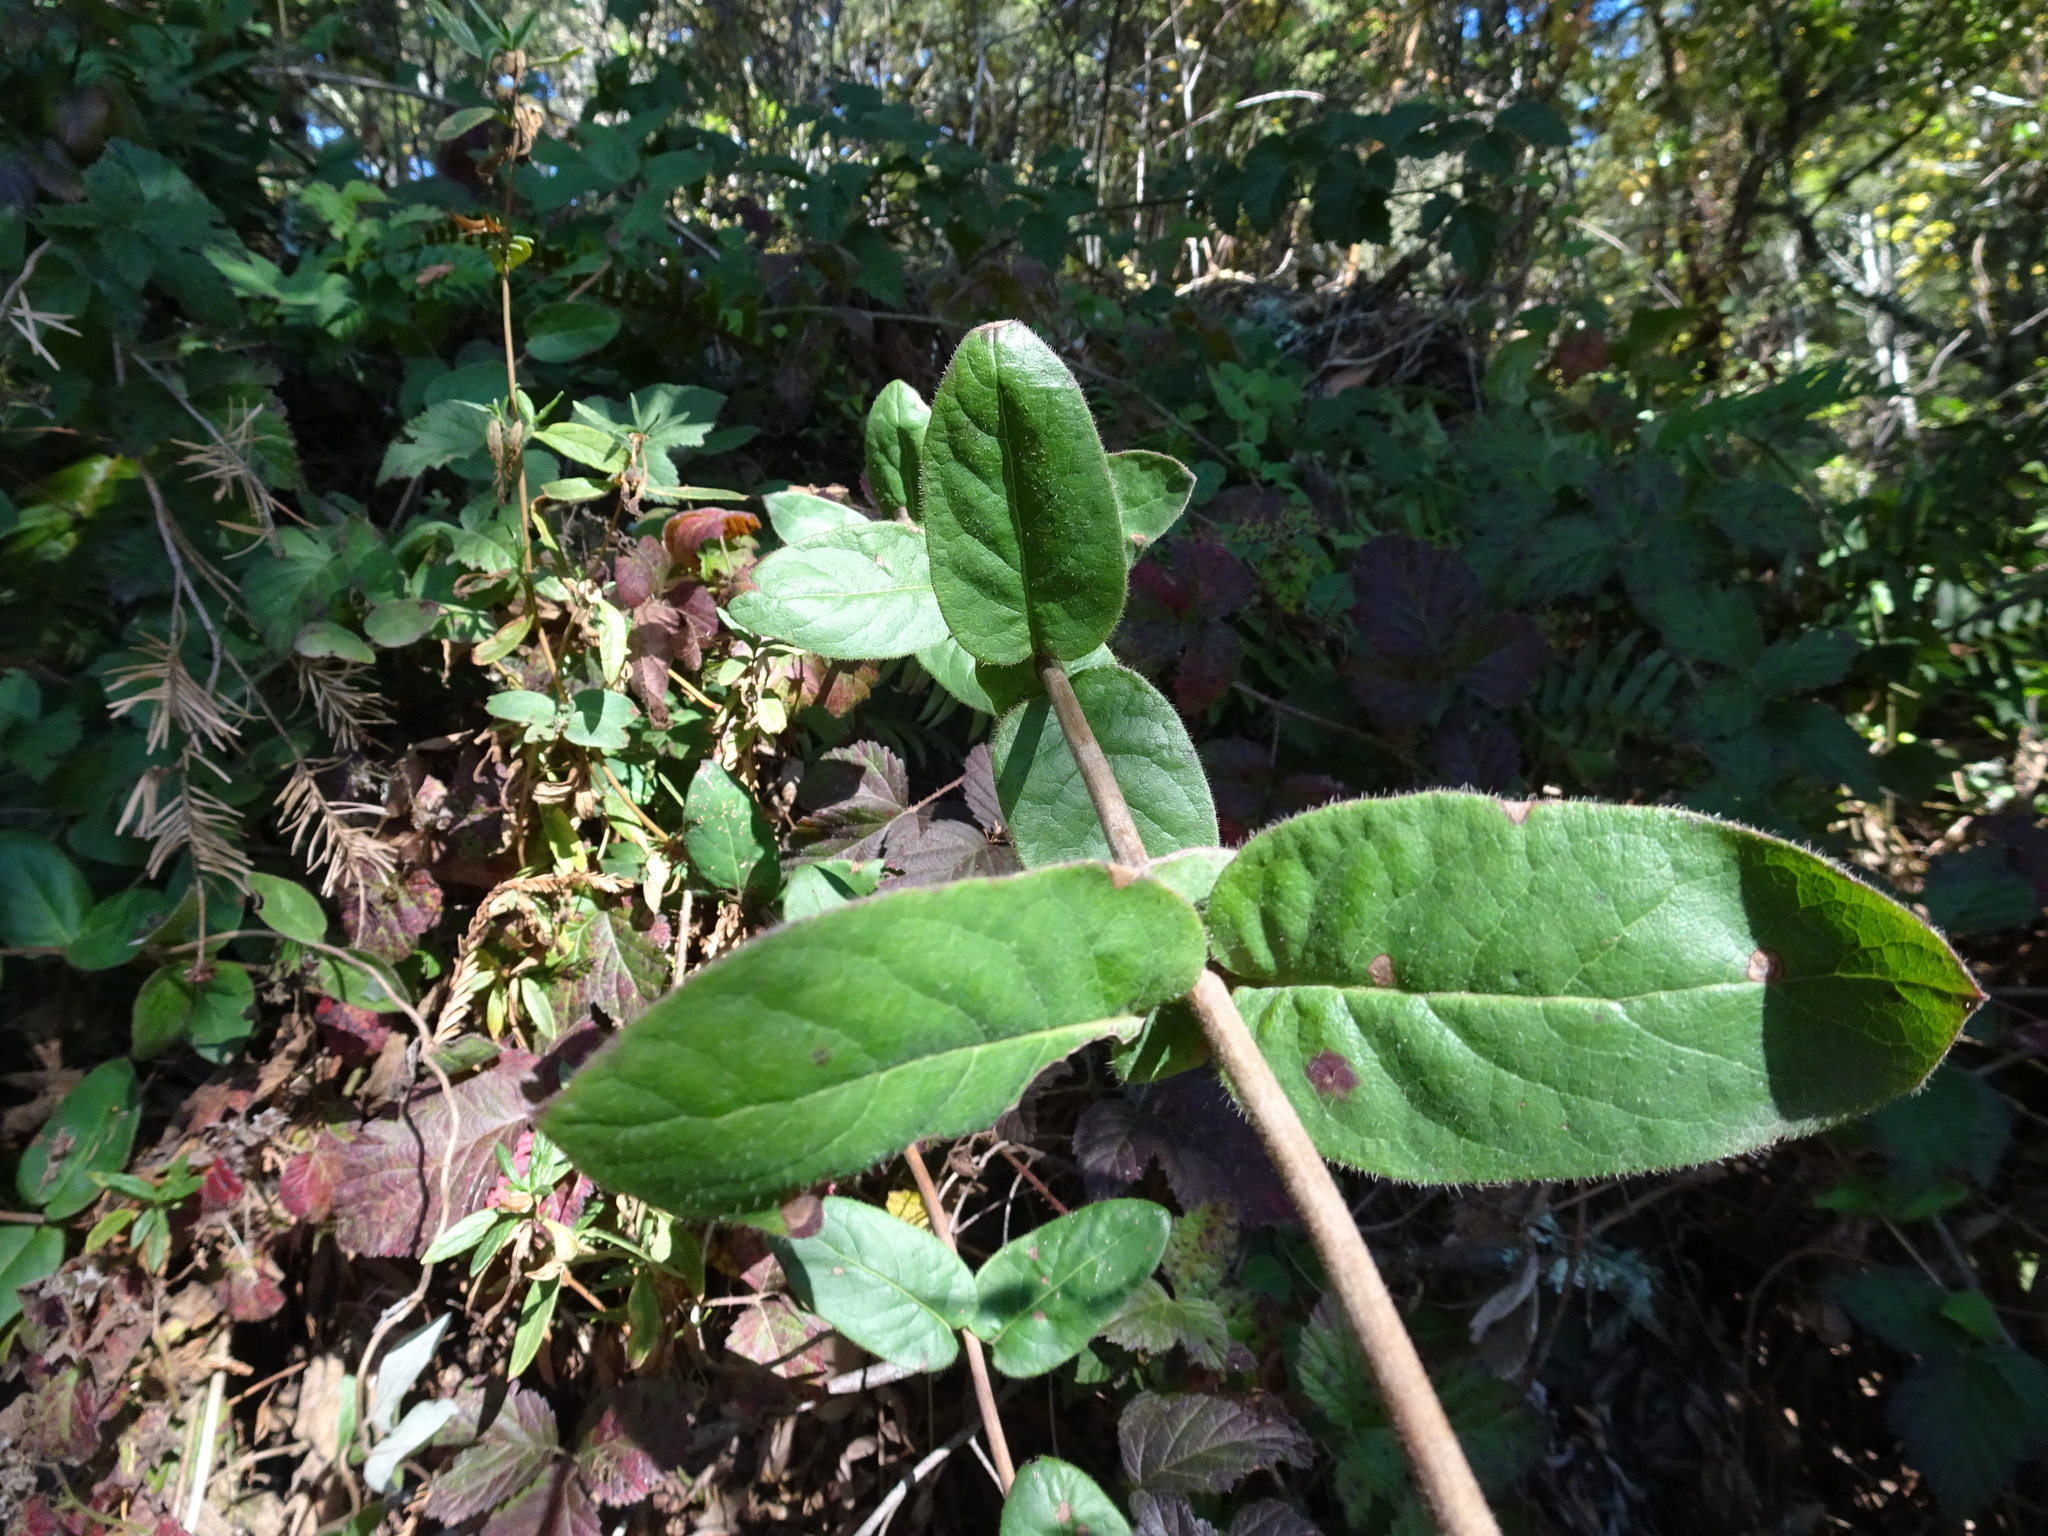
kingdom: Plantae
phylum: Tracheophyta
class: Magnoliopsida
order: Dipsacales
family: Caprifoliaceae
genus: Lonicera
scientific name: Lonicera hispidula
